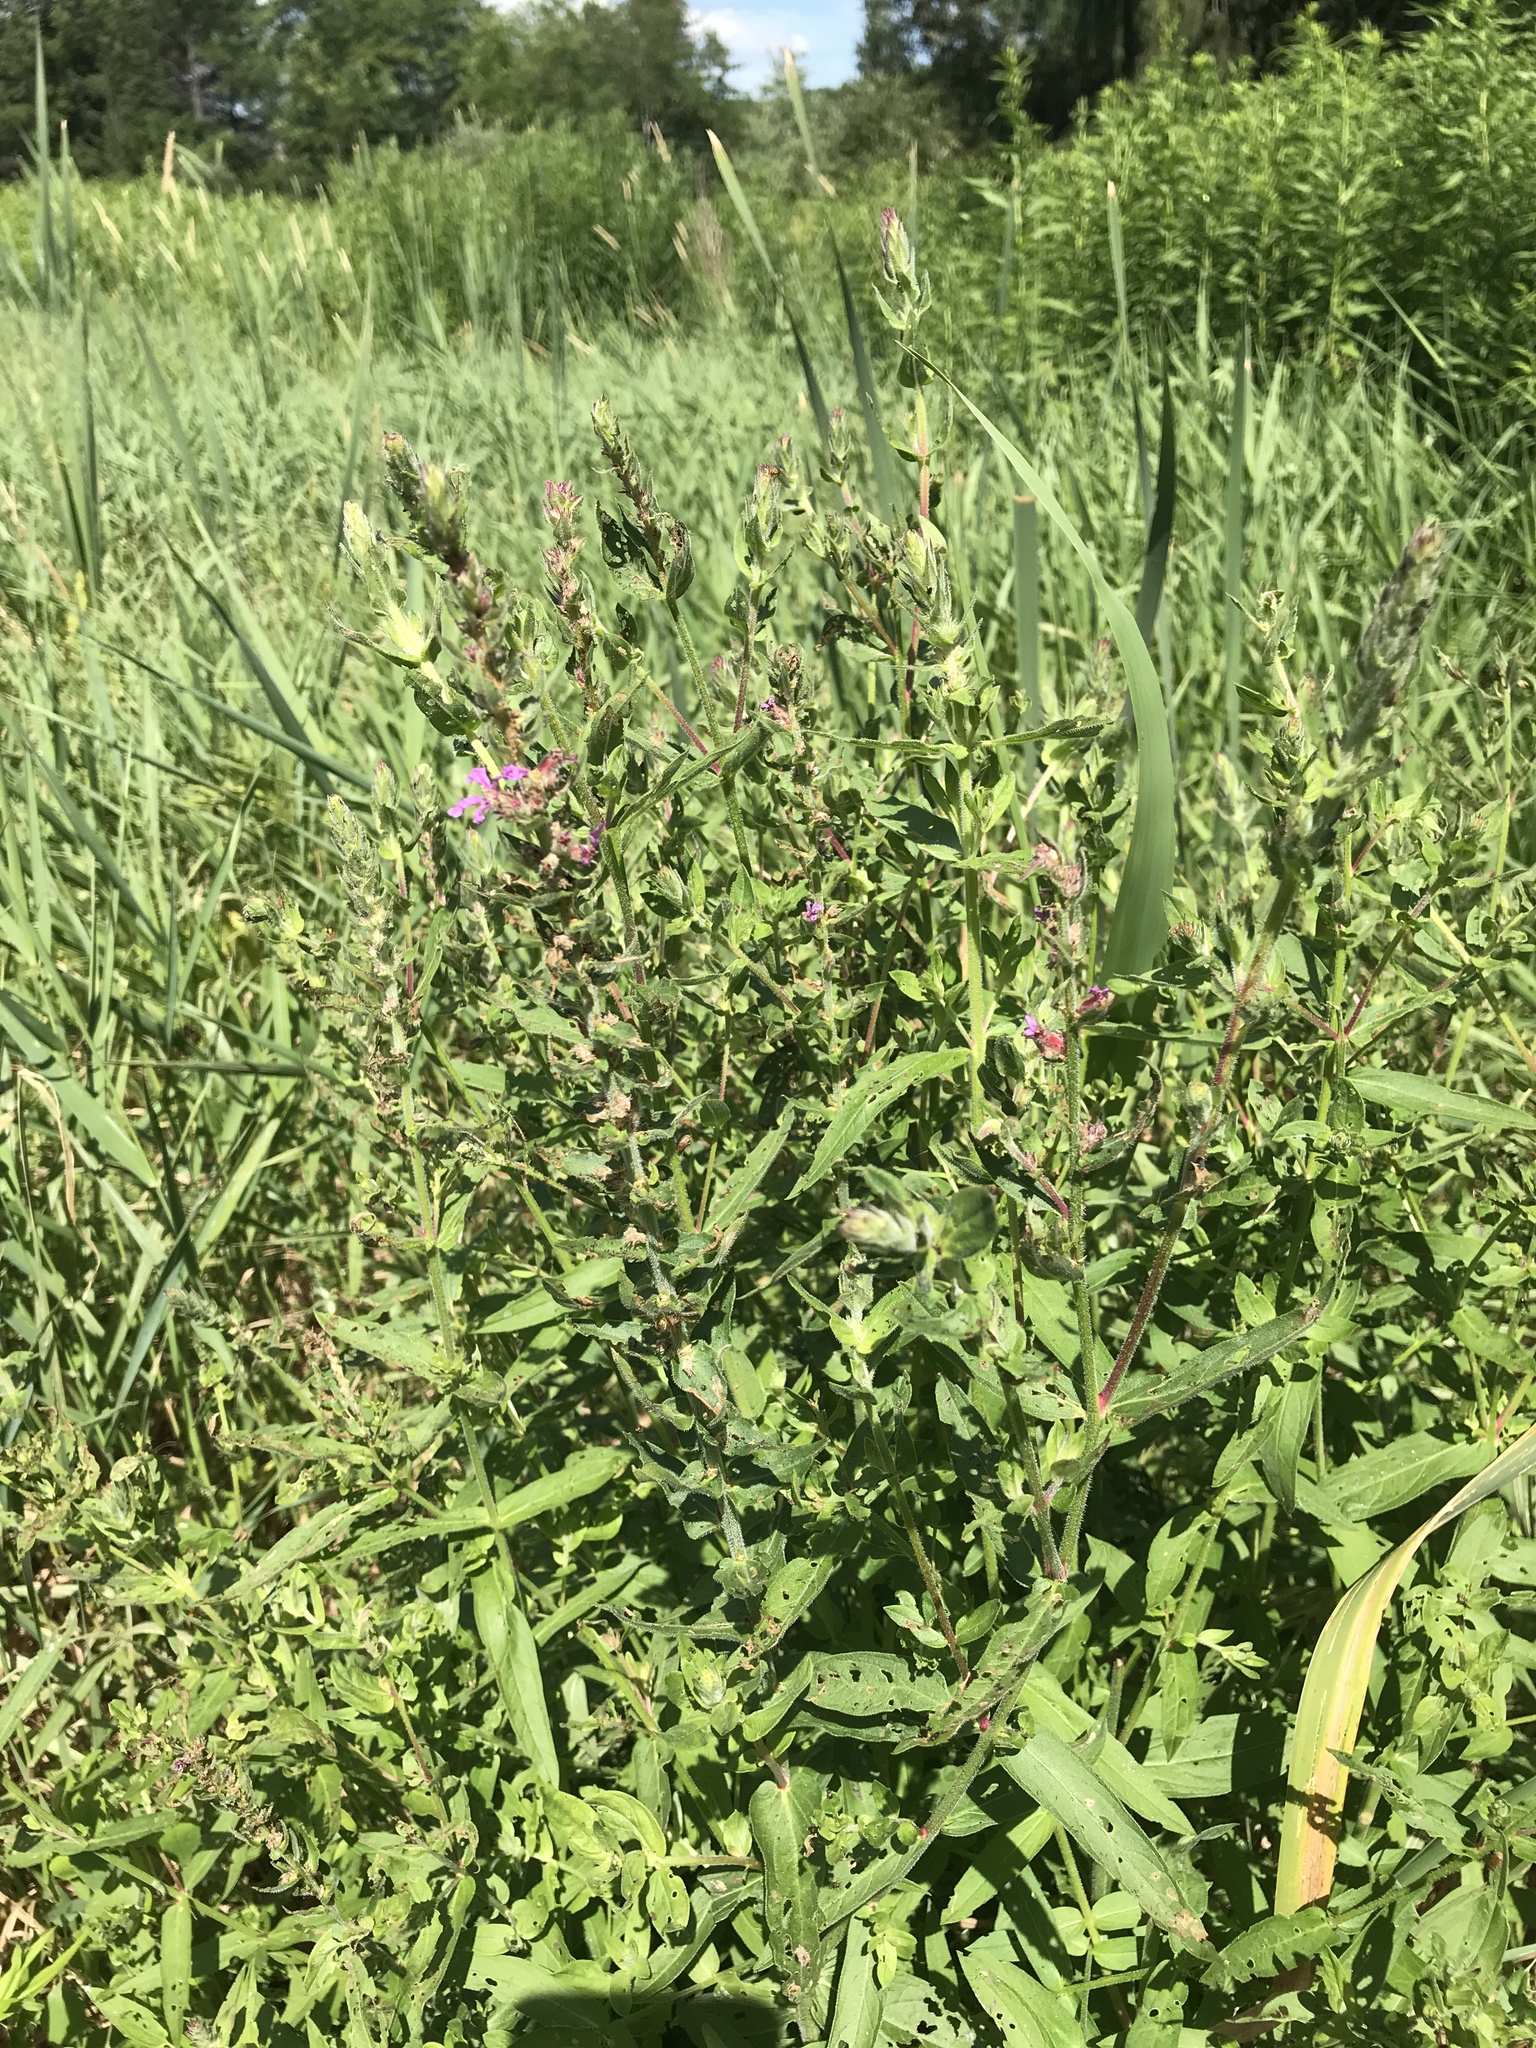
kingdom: Plantae
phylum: Tracheophyta
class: Magnoliopsida
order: Myrtales
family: Lythraceae
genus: Lythrum
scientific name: Lythrum salicaria
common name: Purple loosestrife
